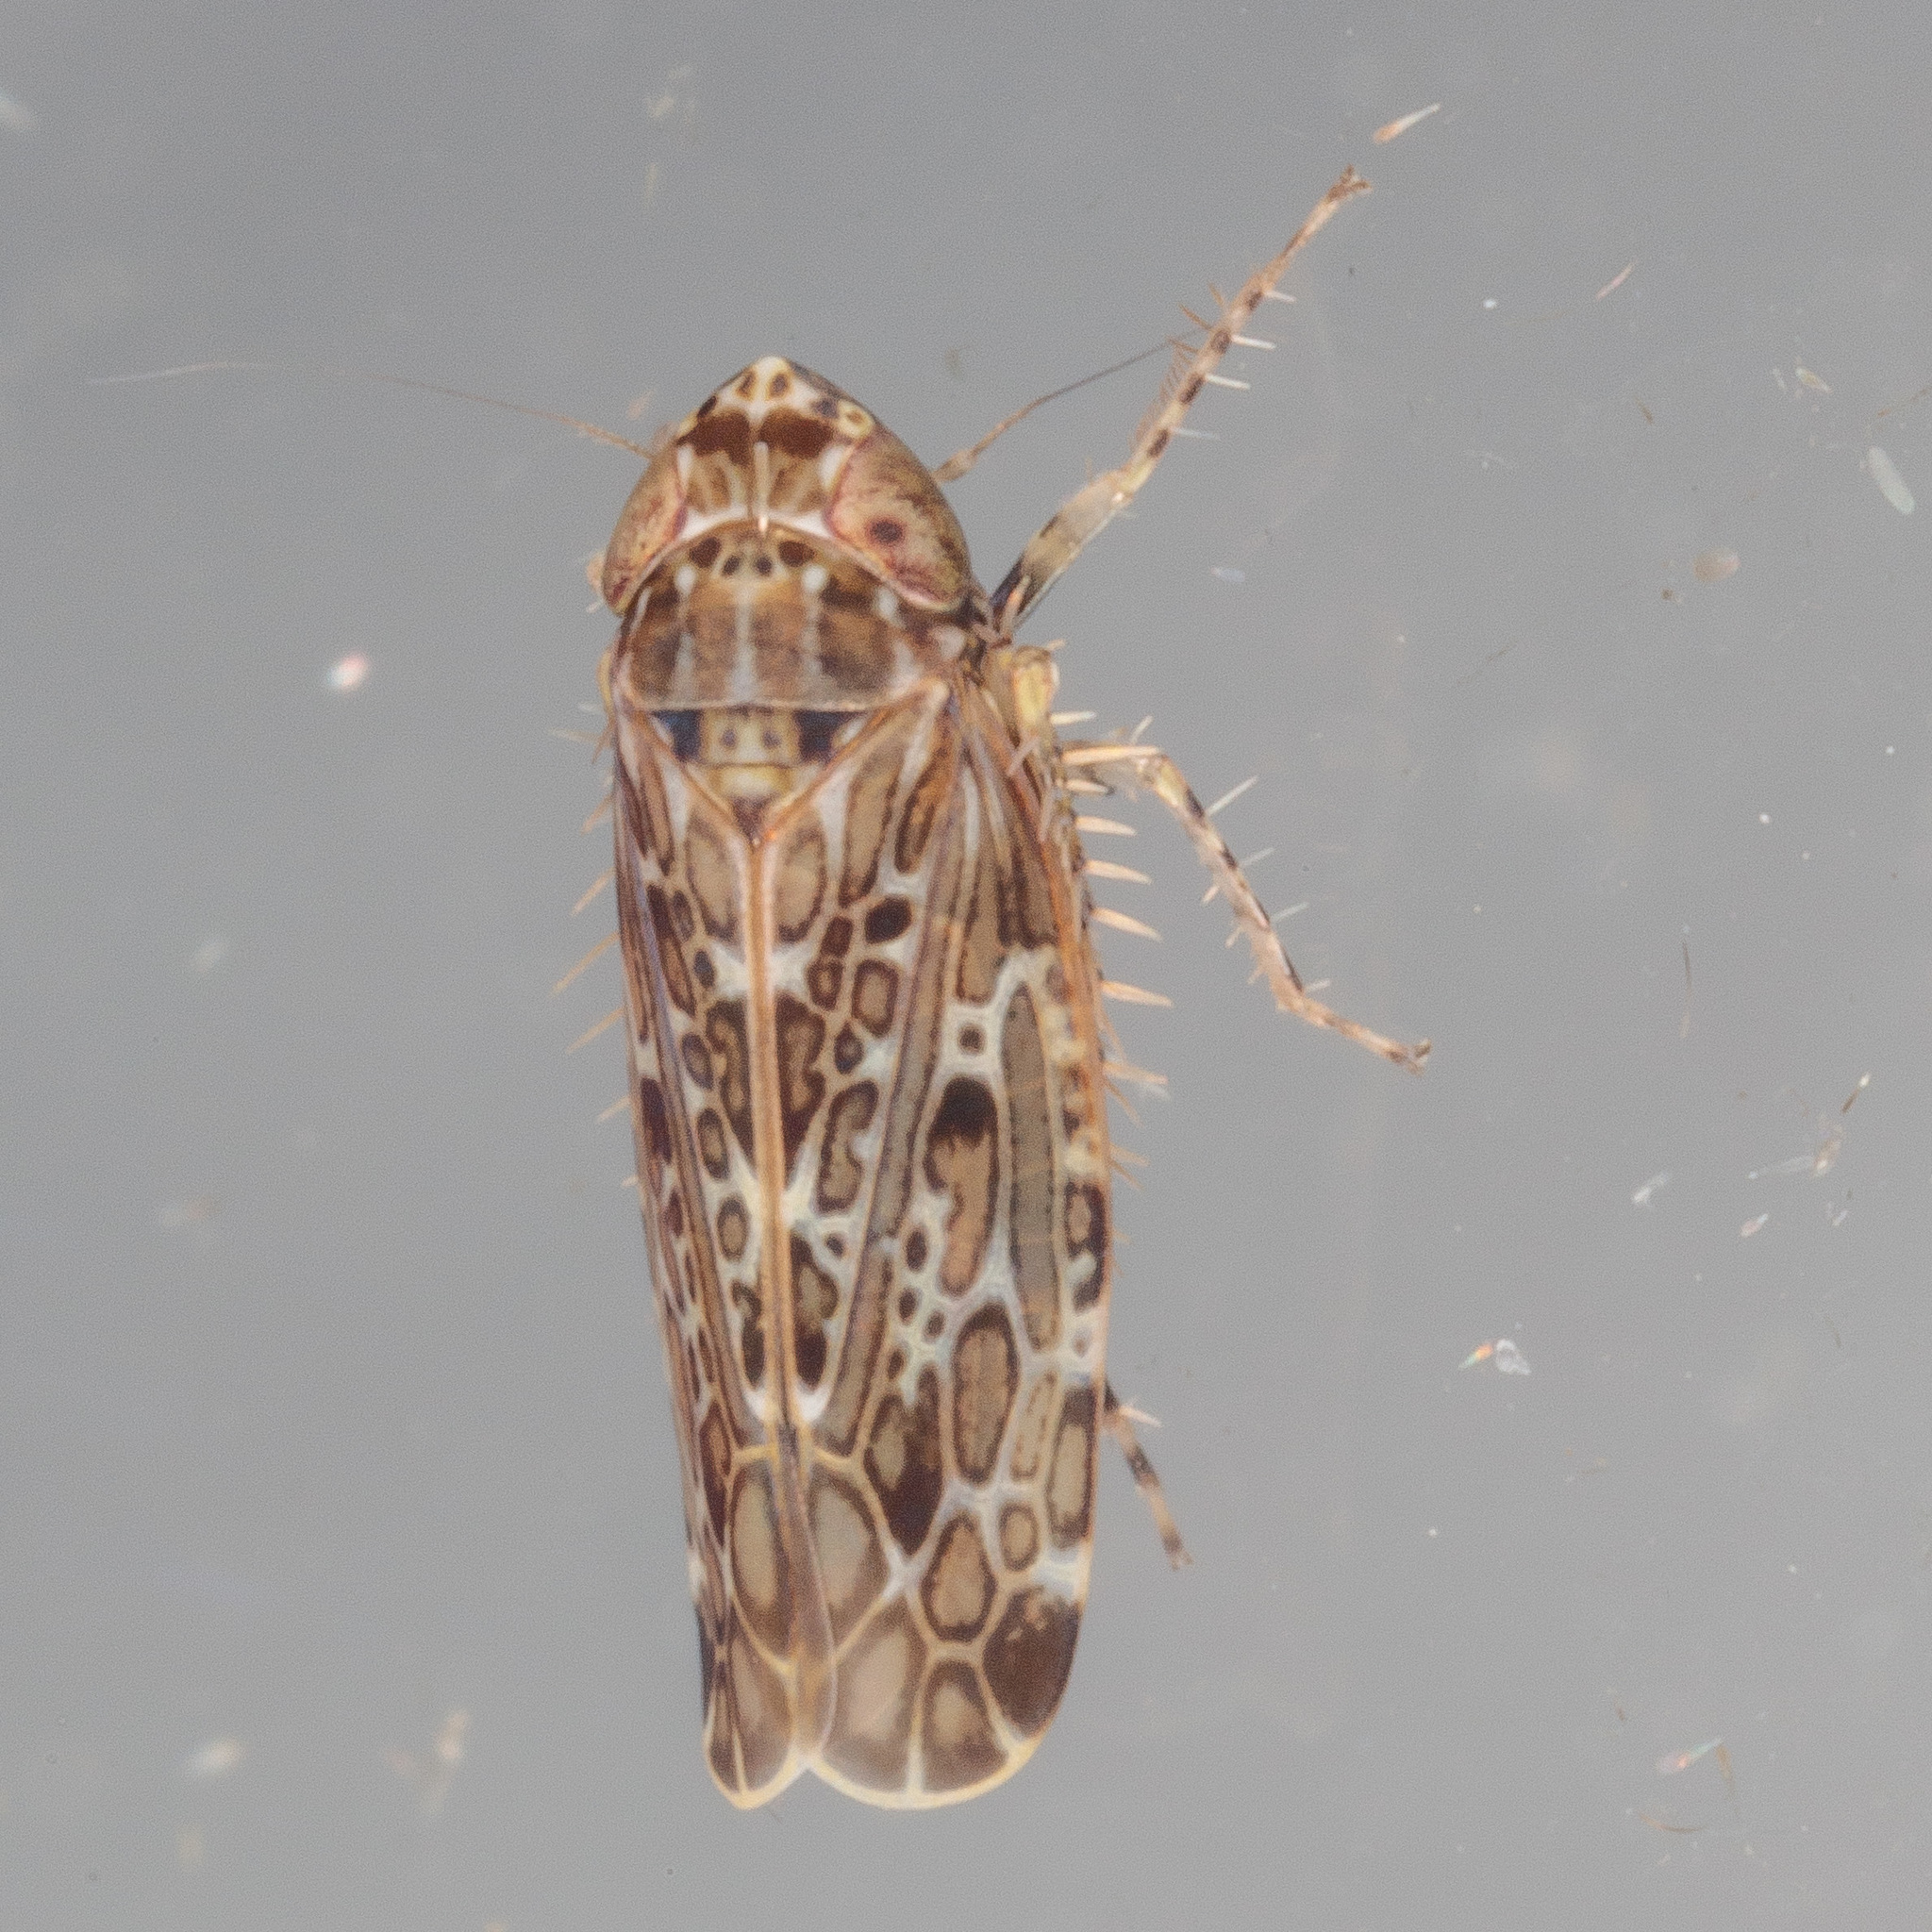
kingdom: Animalia
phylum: Arthropoda
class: Insecta
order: Hemiptera
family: Cicadellidae
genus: Polyamia
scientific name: Polyamia weedi
